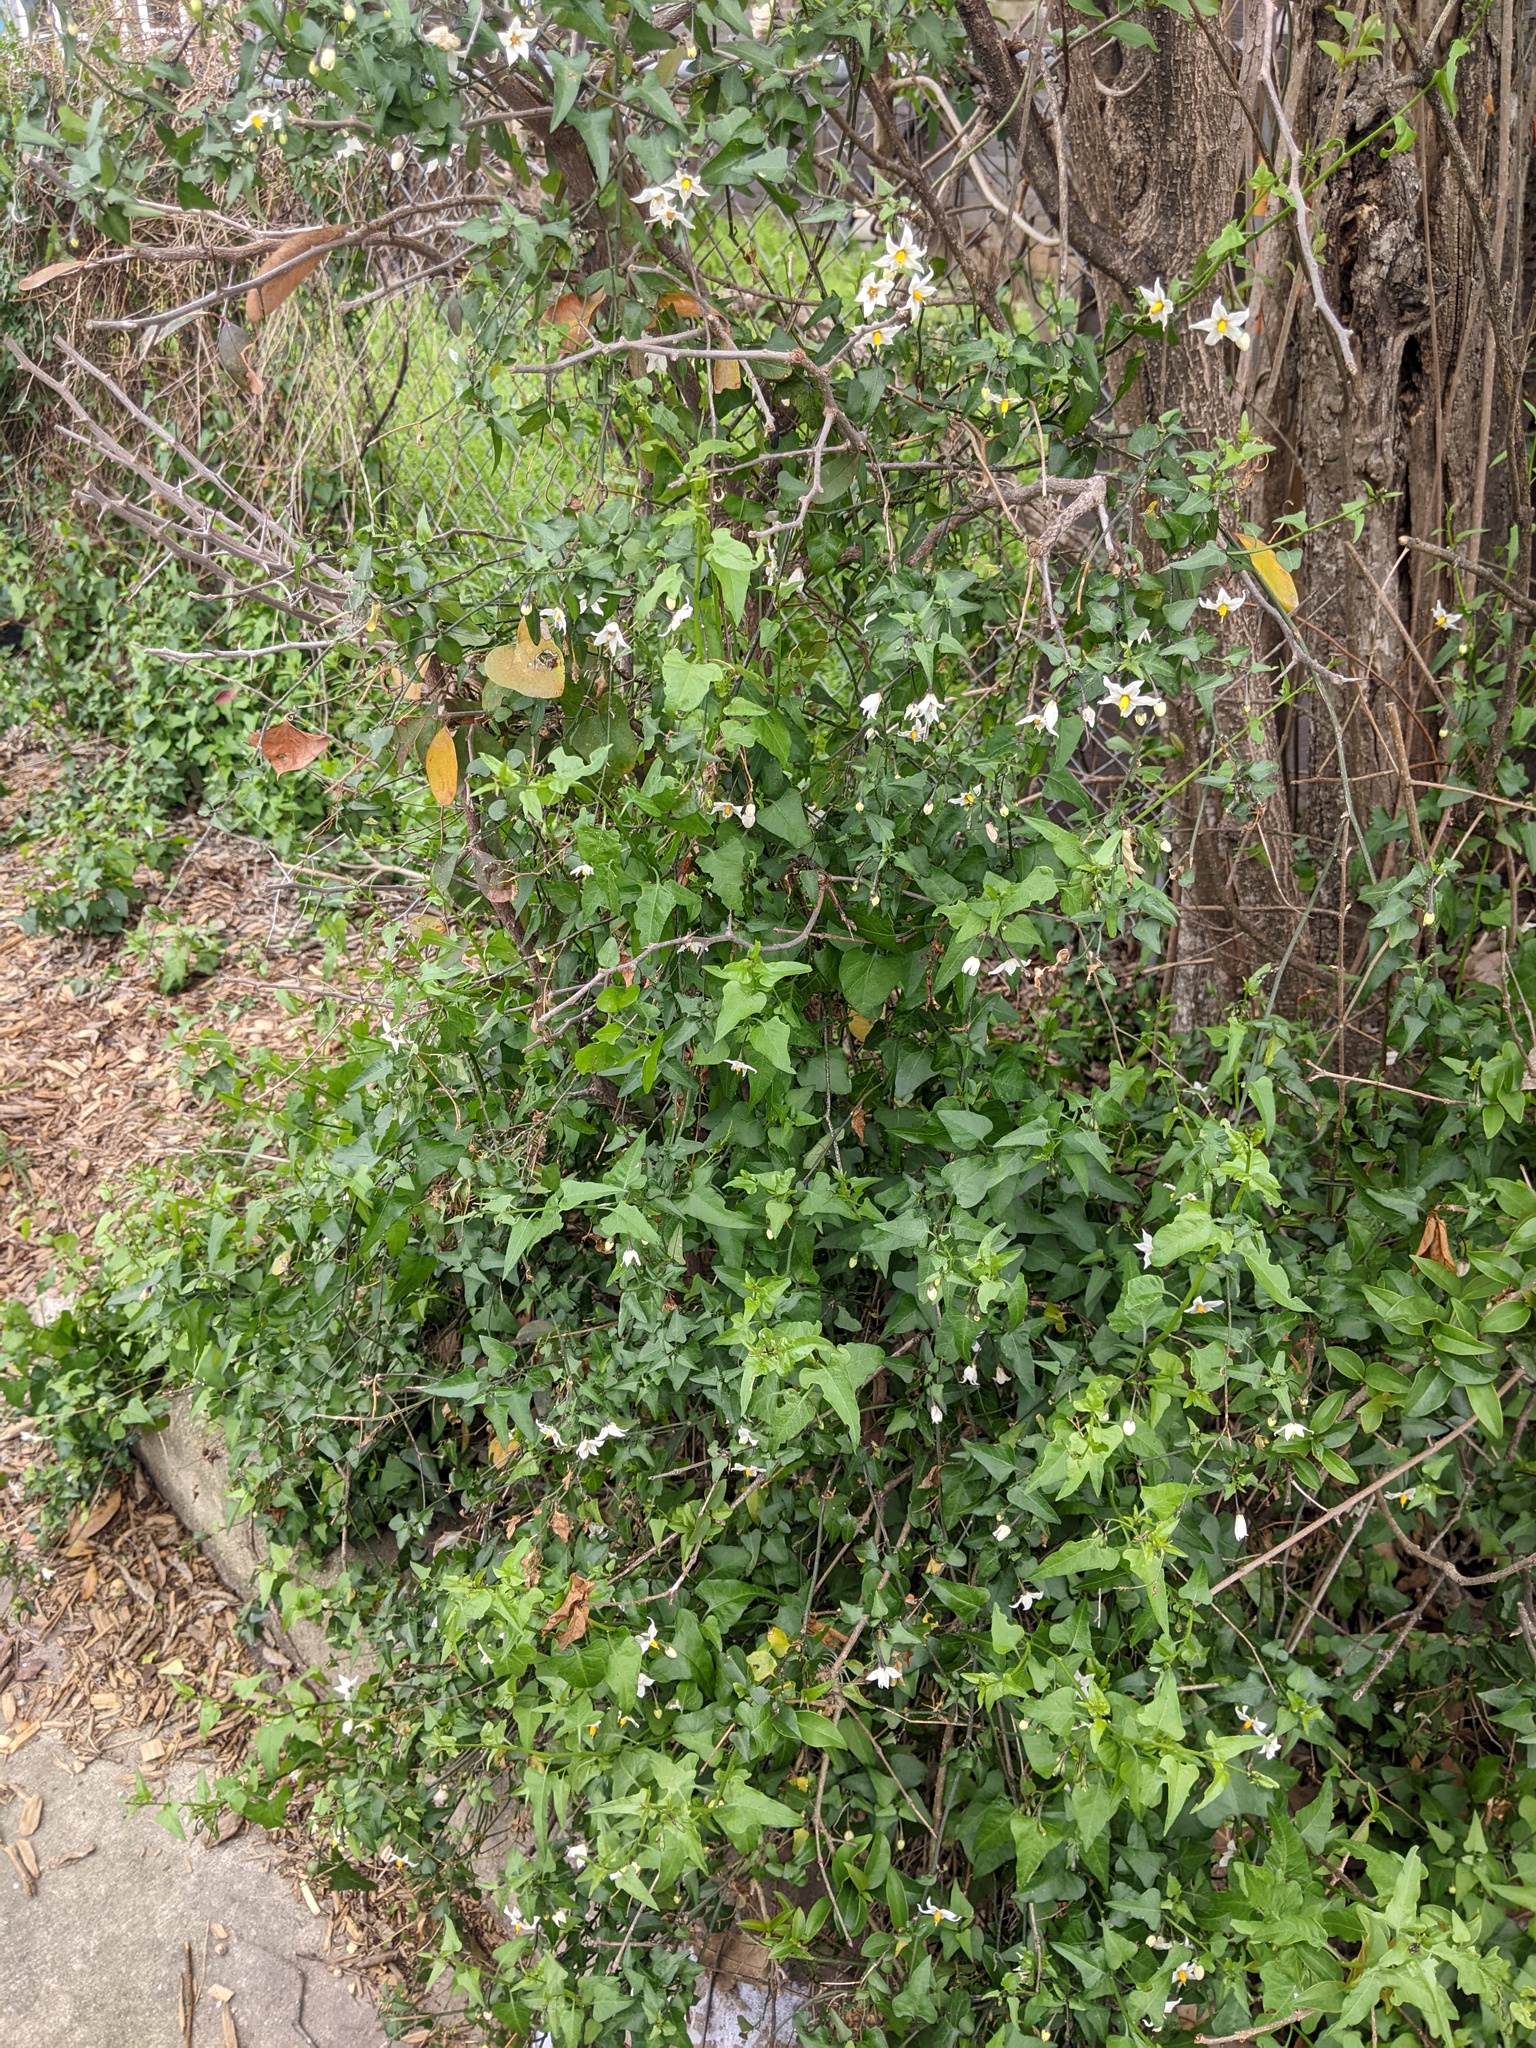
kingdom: Plantae
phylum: Tracheophyta
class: Magnoliopsida
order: Solanales
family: Solanaceae
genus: Solanum
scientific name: Solanum triquetrum
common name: Texas nightshade
